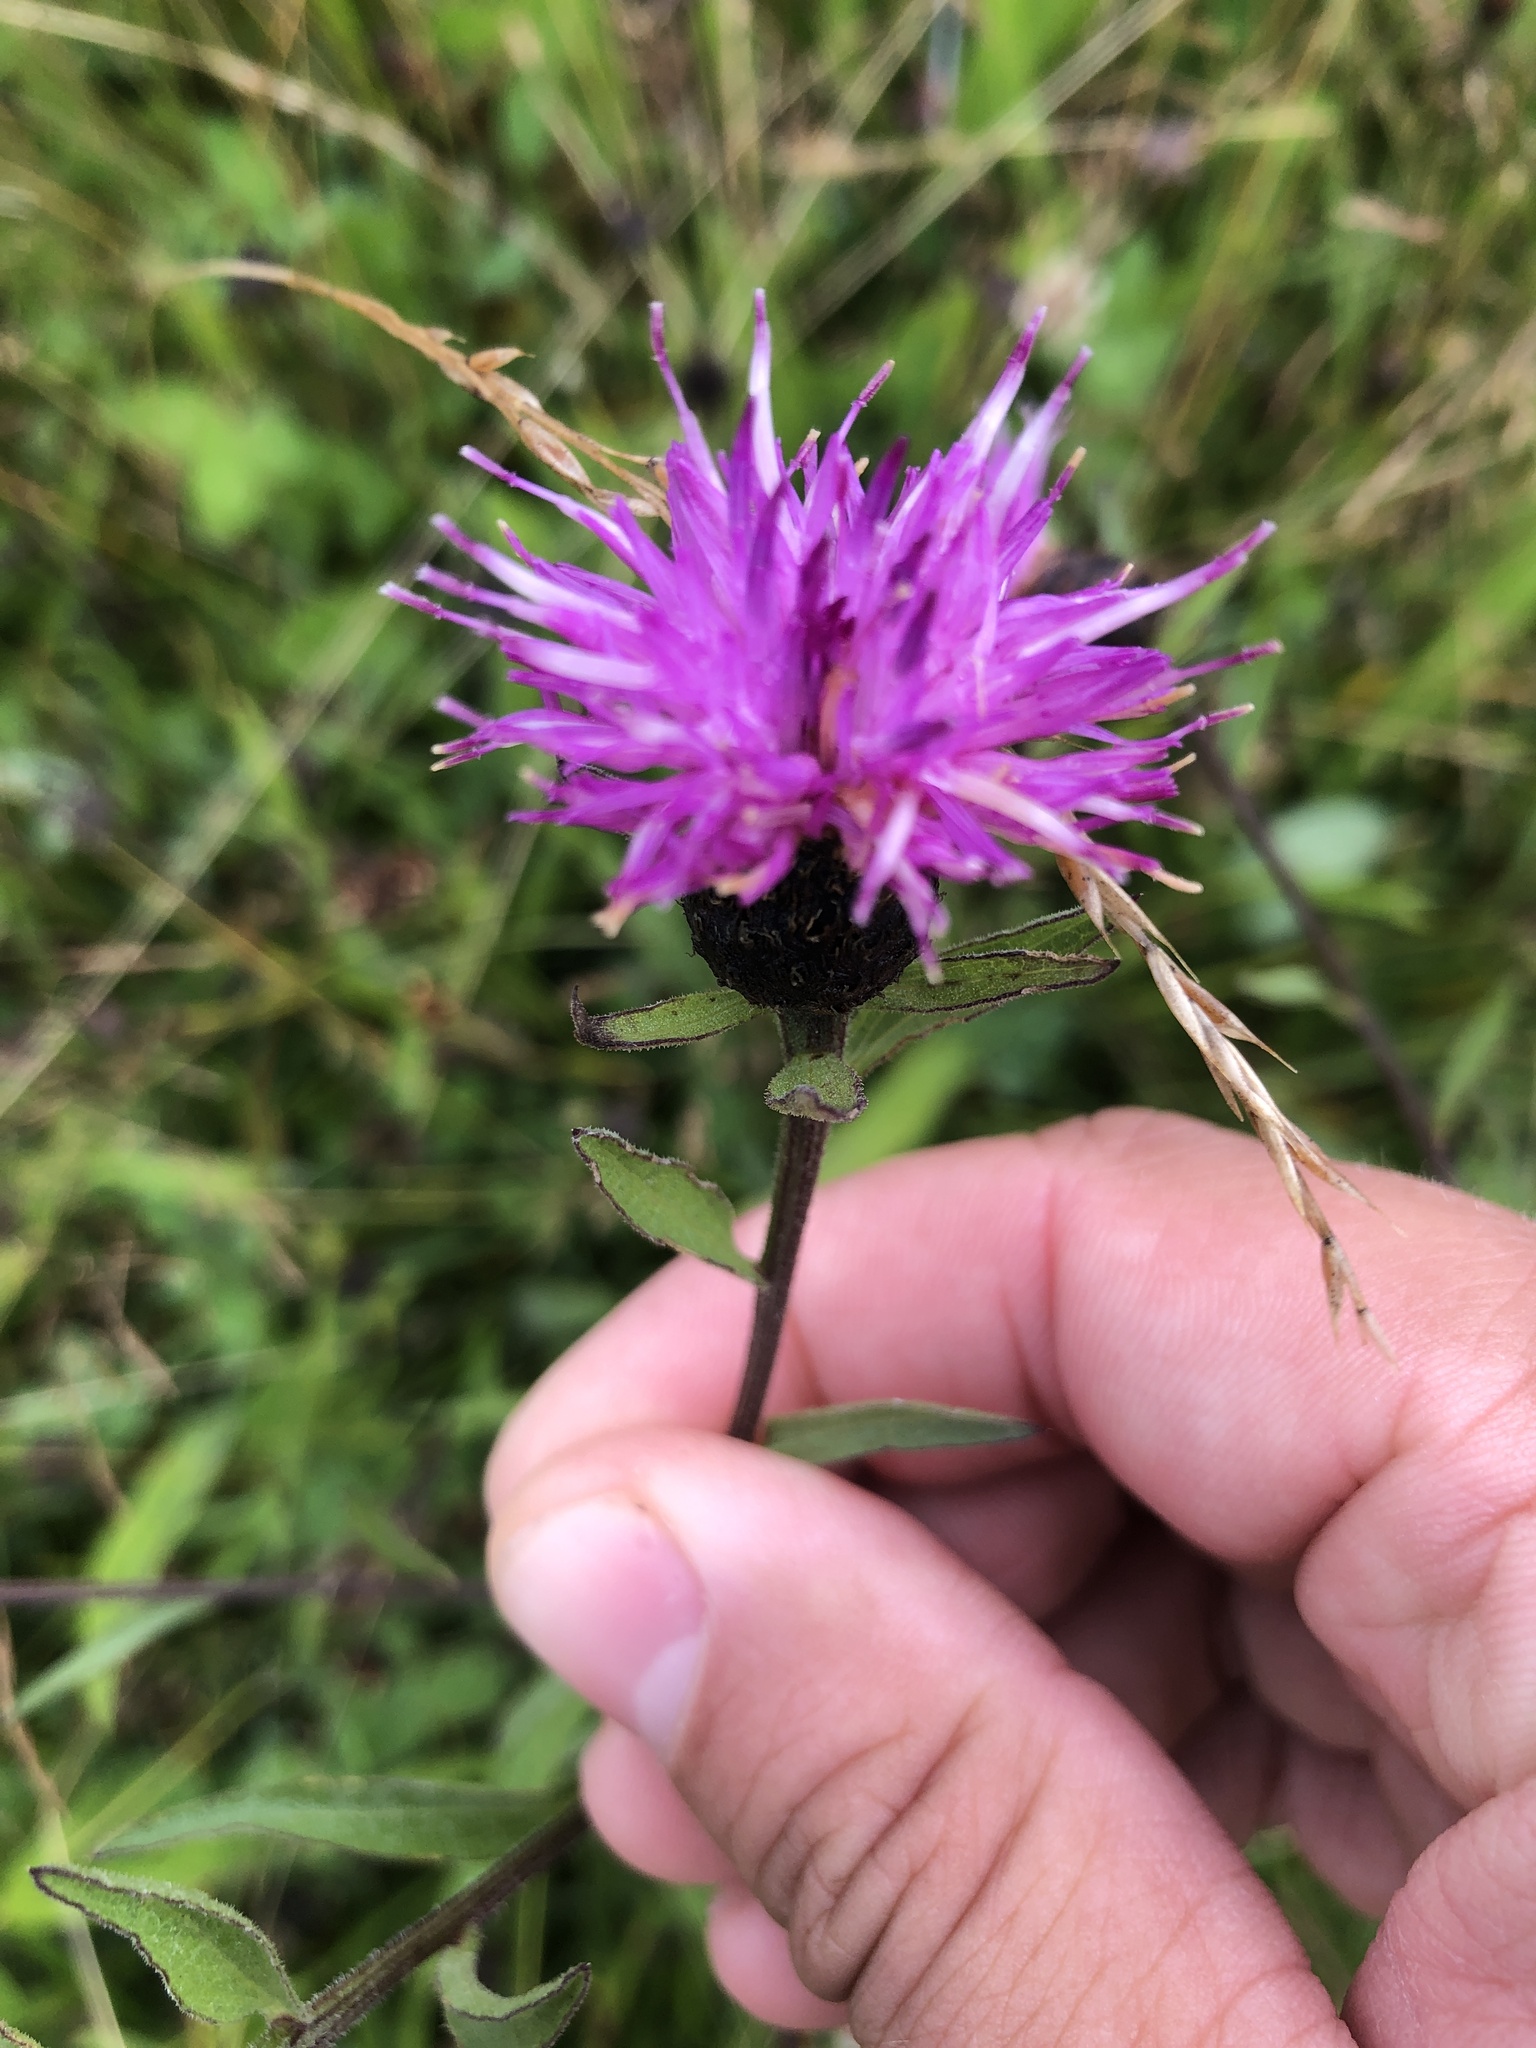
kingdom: Plantae
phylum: Tracheophyta
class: Magnoliopsida
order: Asterales
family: Asteraceae
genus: Centaurea
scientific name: Centaurea nigra
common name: Lesser knapweed
